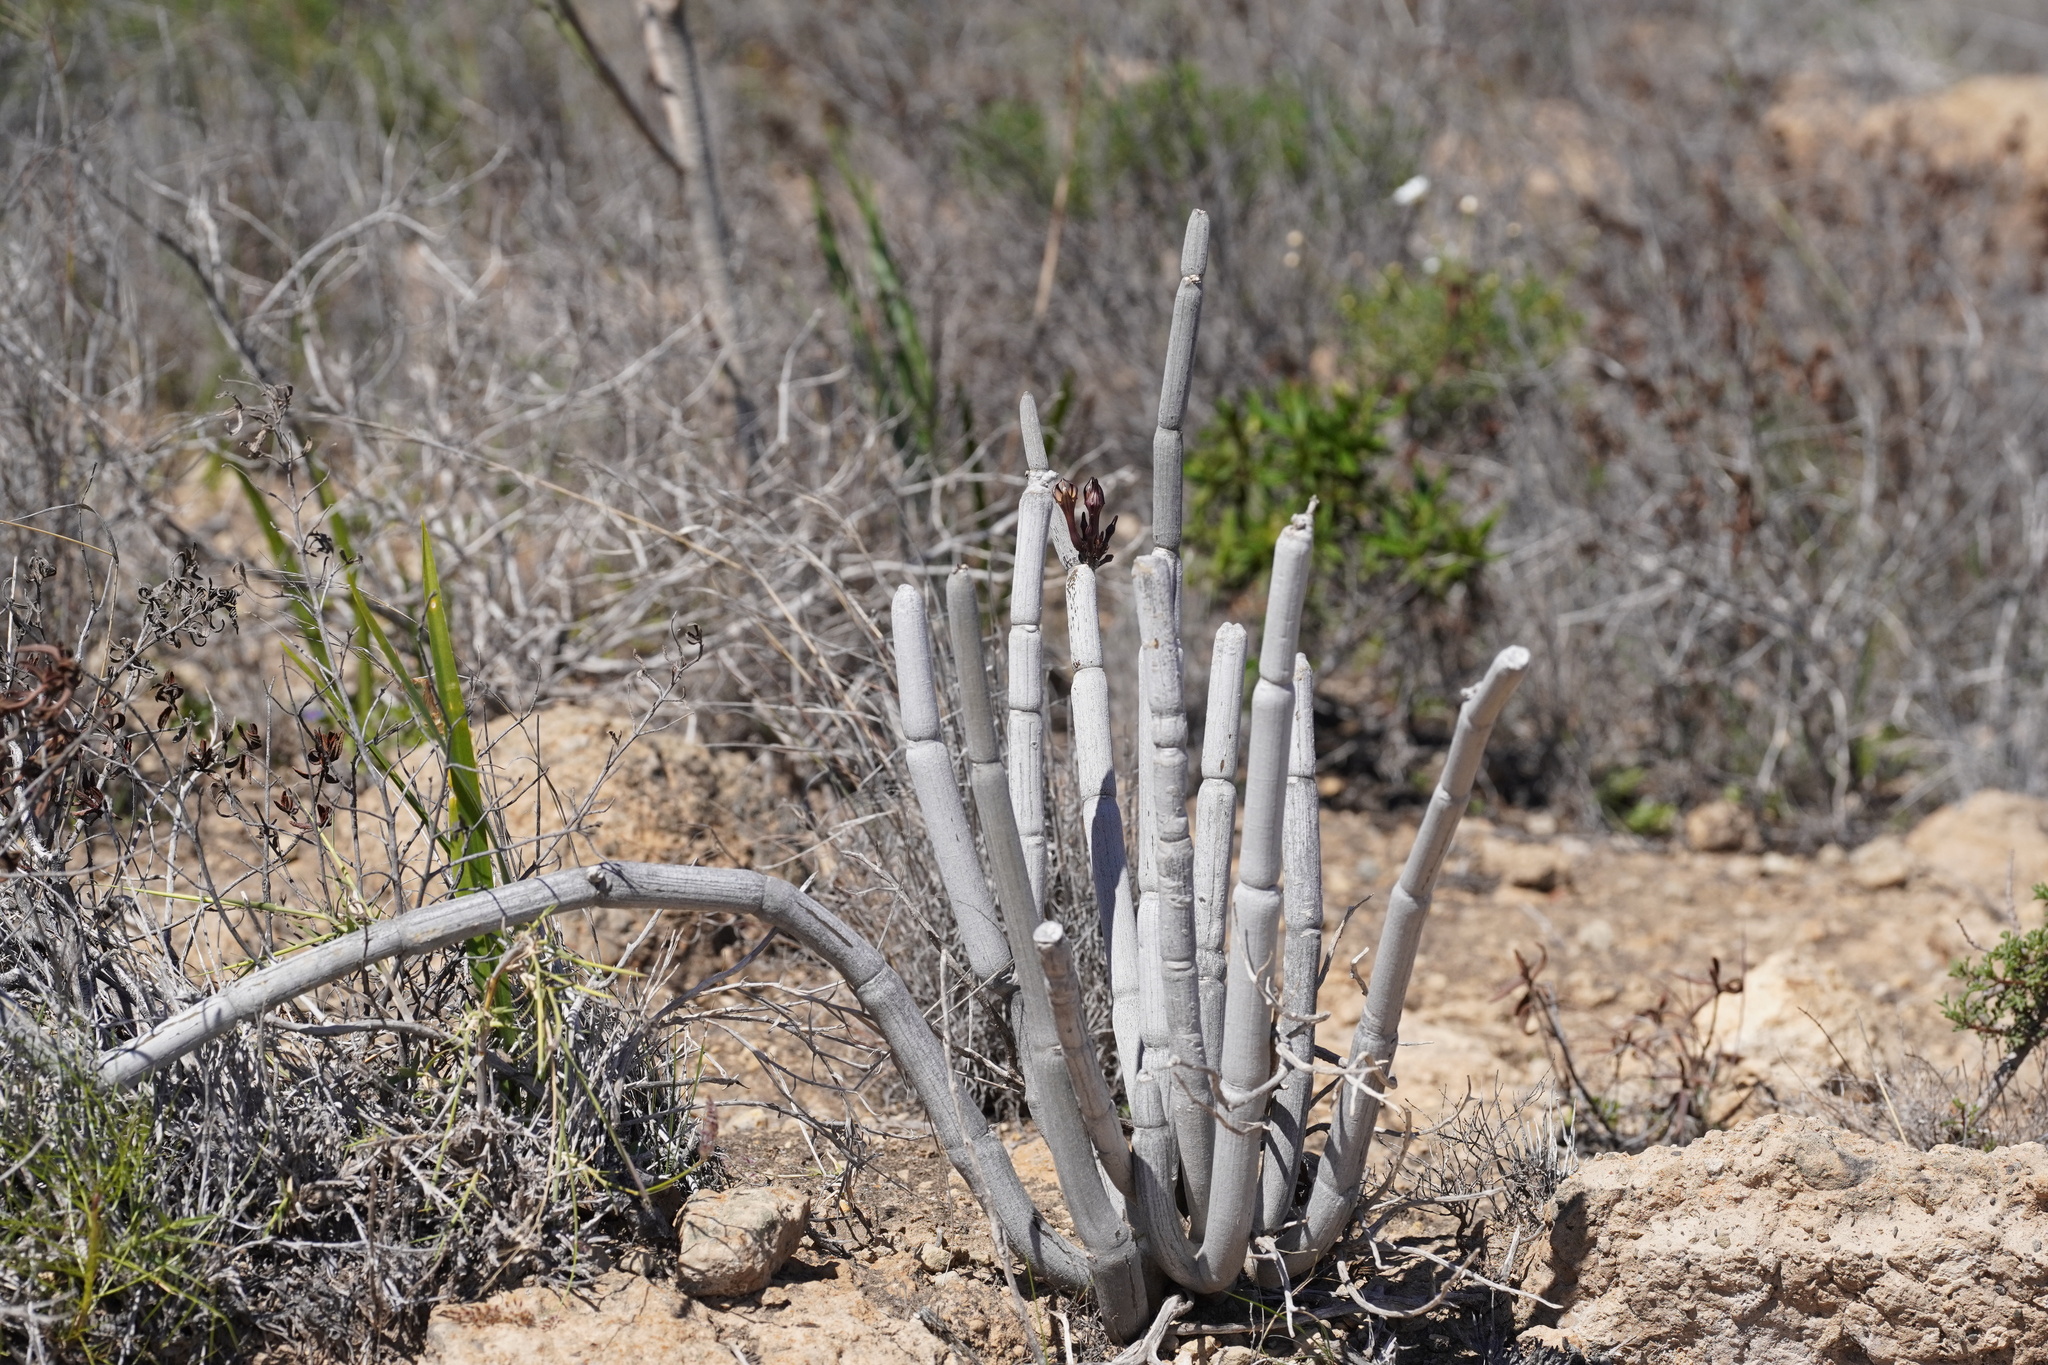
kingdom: Plantae
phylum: Tracheophyta
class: Magnoliopsida
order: Gentianales
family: Apocynaceae
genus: Ceropegia
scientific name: Ceropegia fusca
